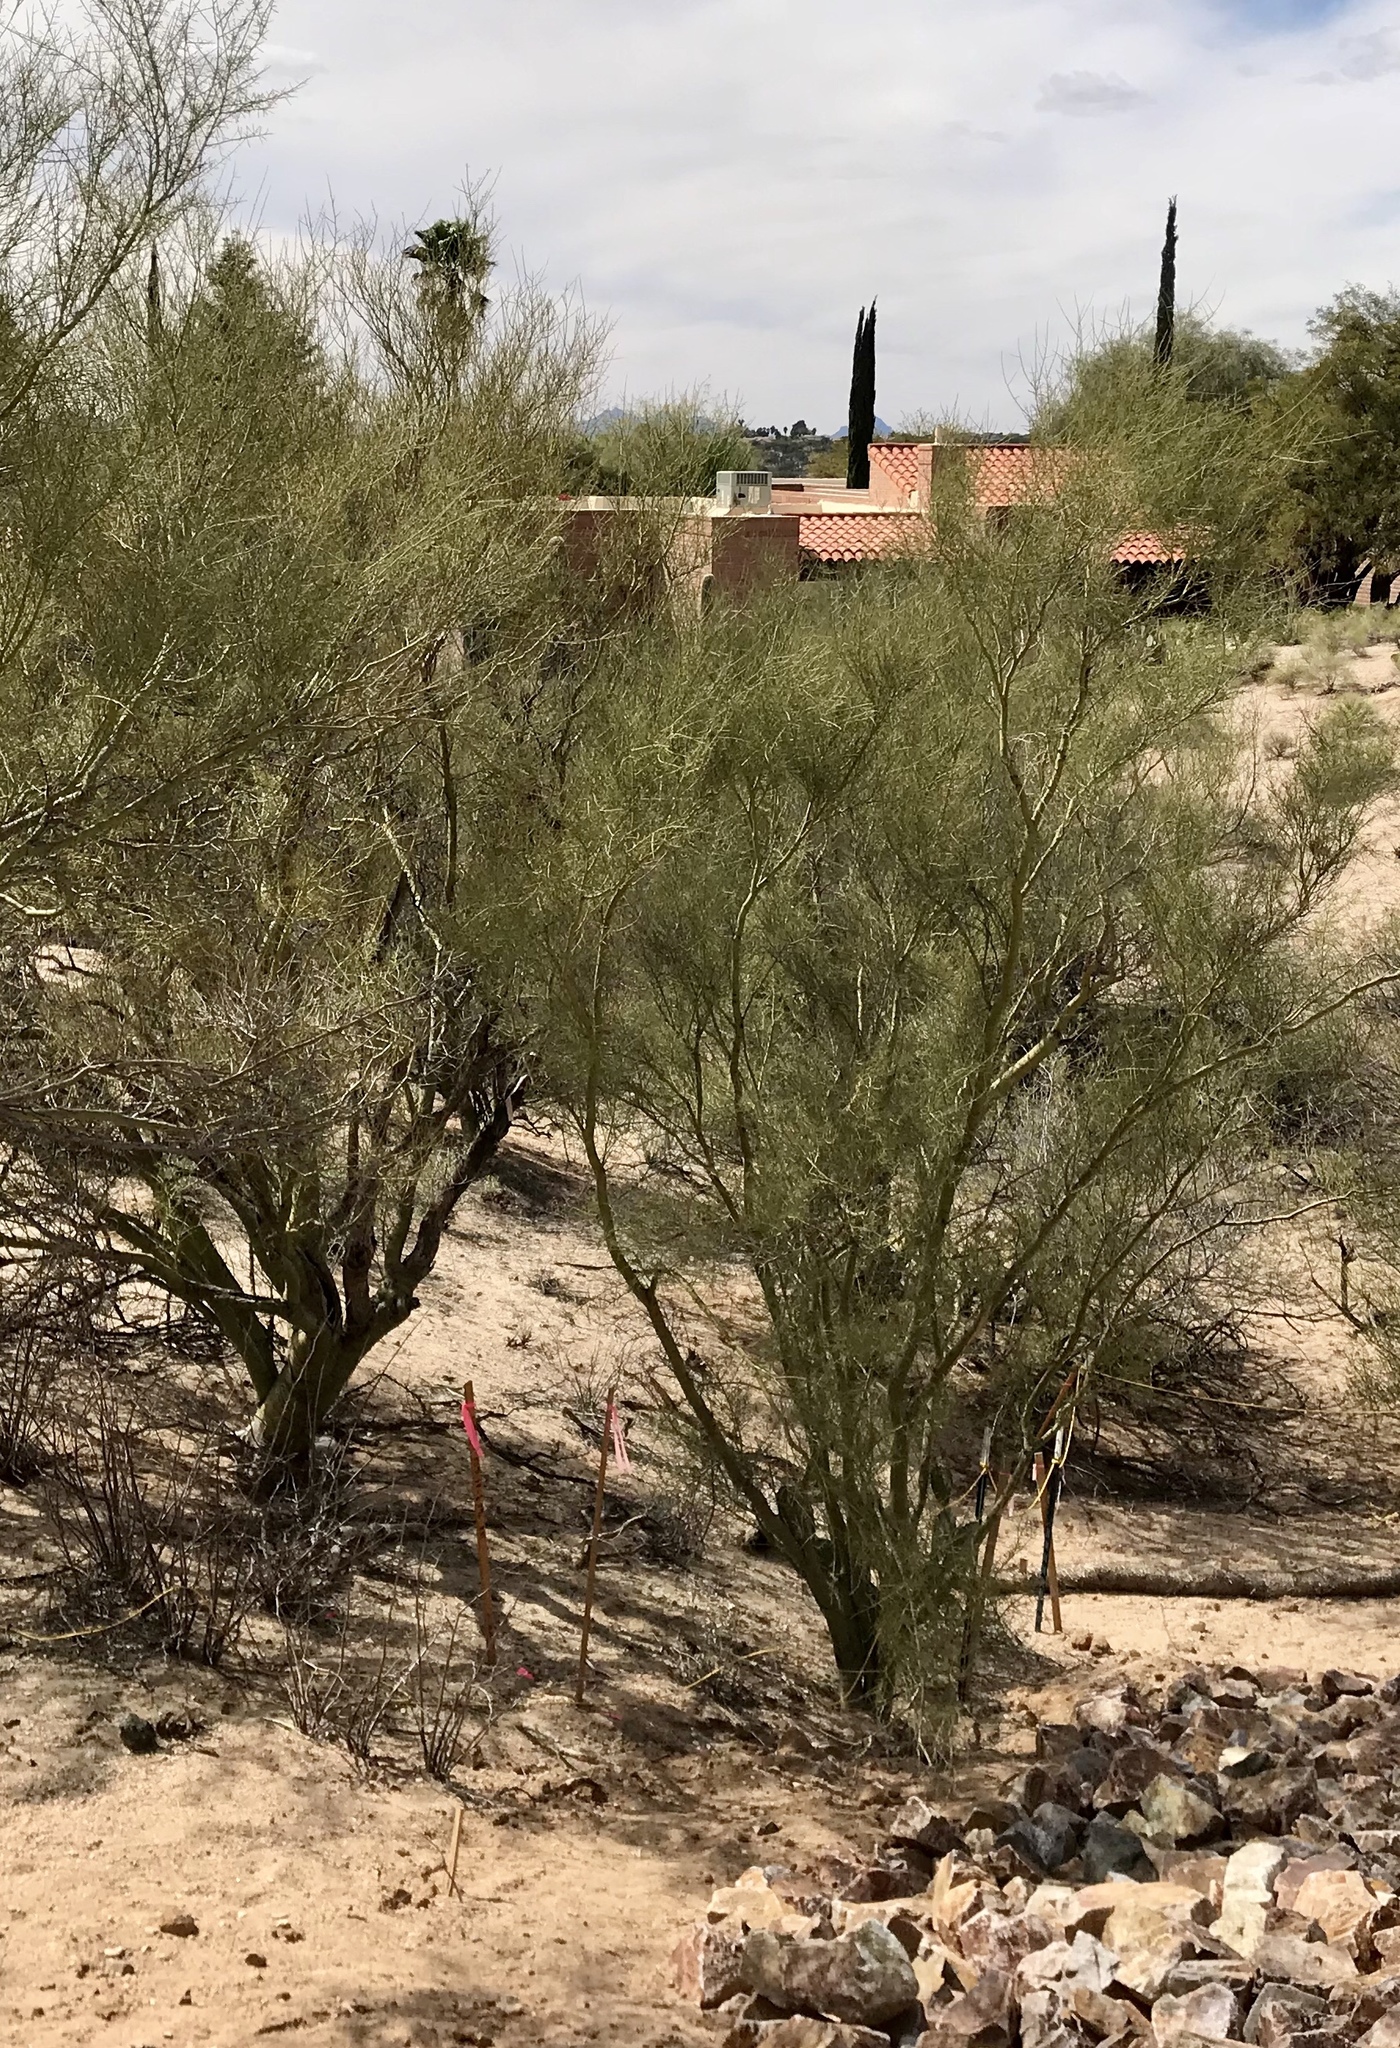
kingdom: Plantae
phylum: Tracheophyta
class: Magnoliopsida
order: Fabales
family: Fabaceae
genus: Parkinsonia
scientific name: Parkinsonia microphylla
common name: Yellow paloverde
